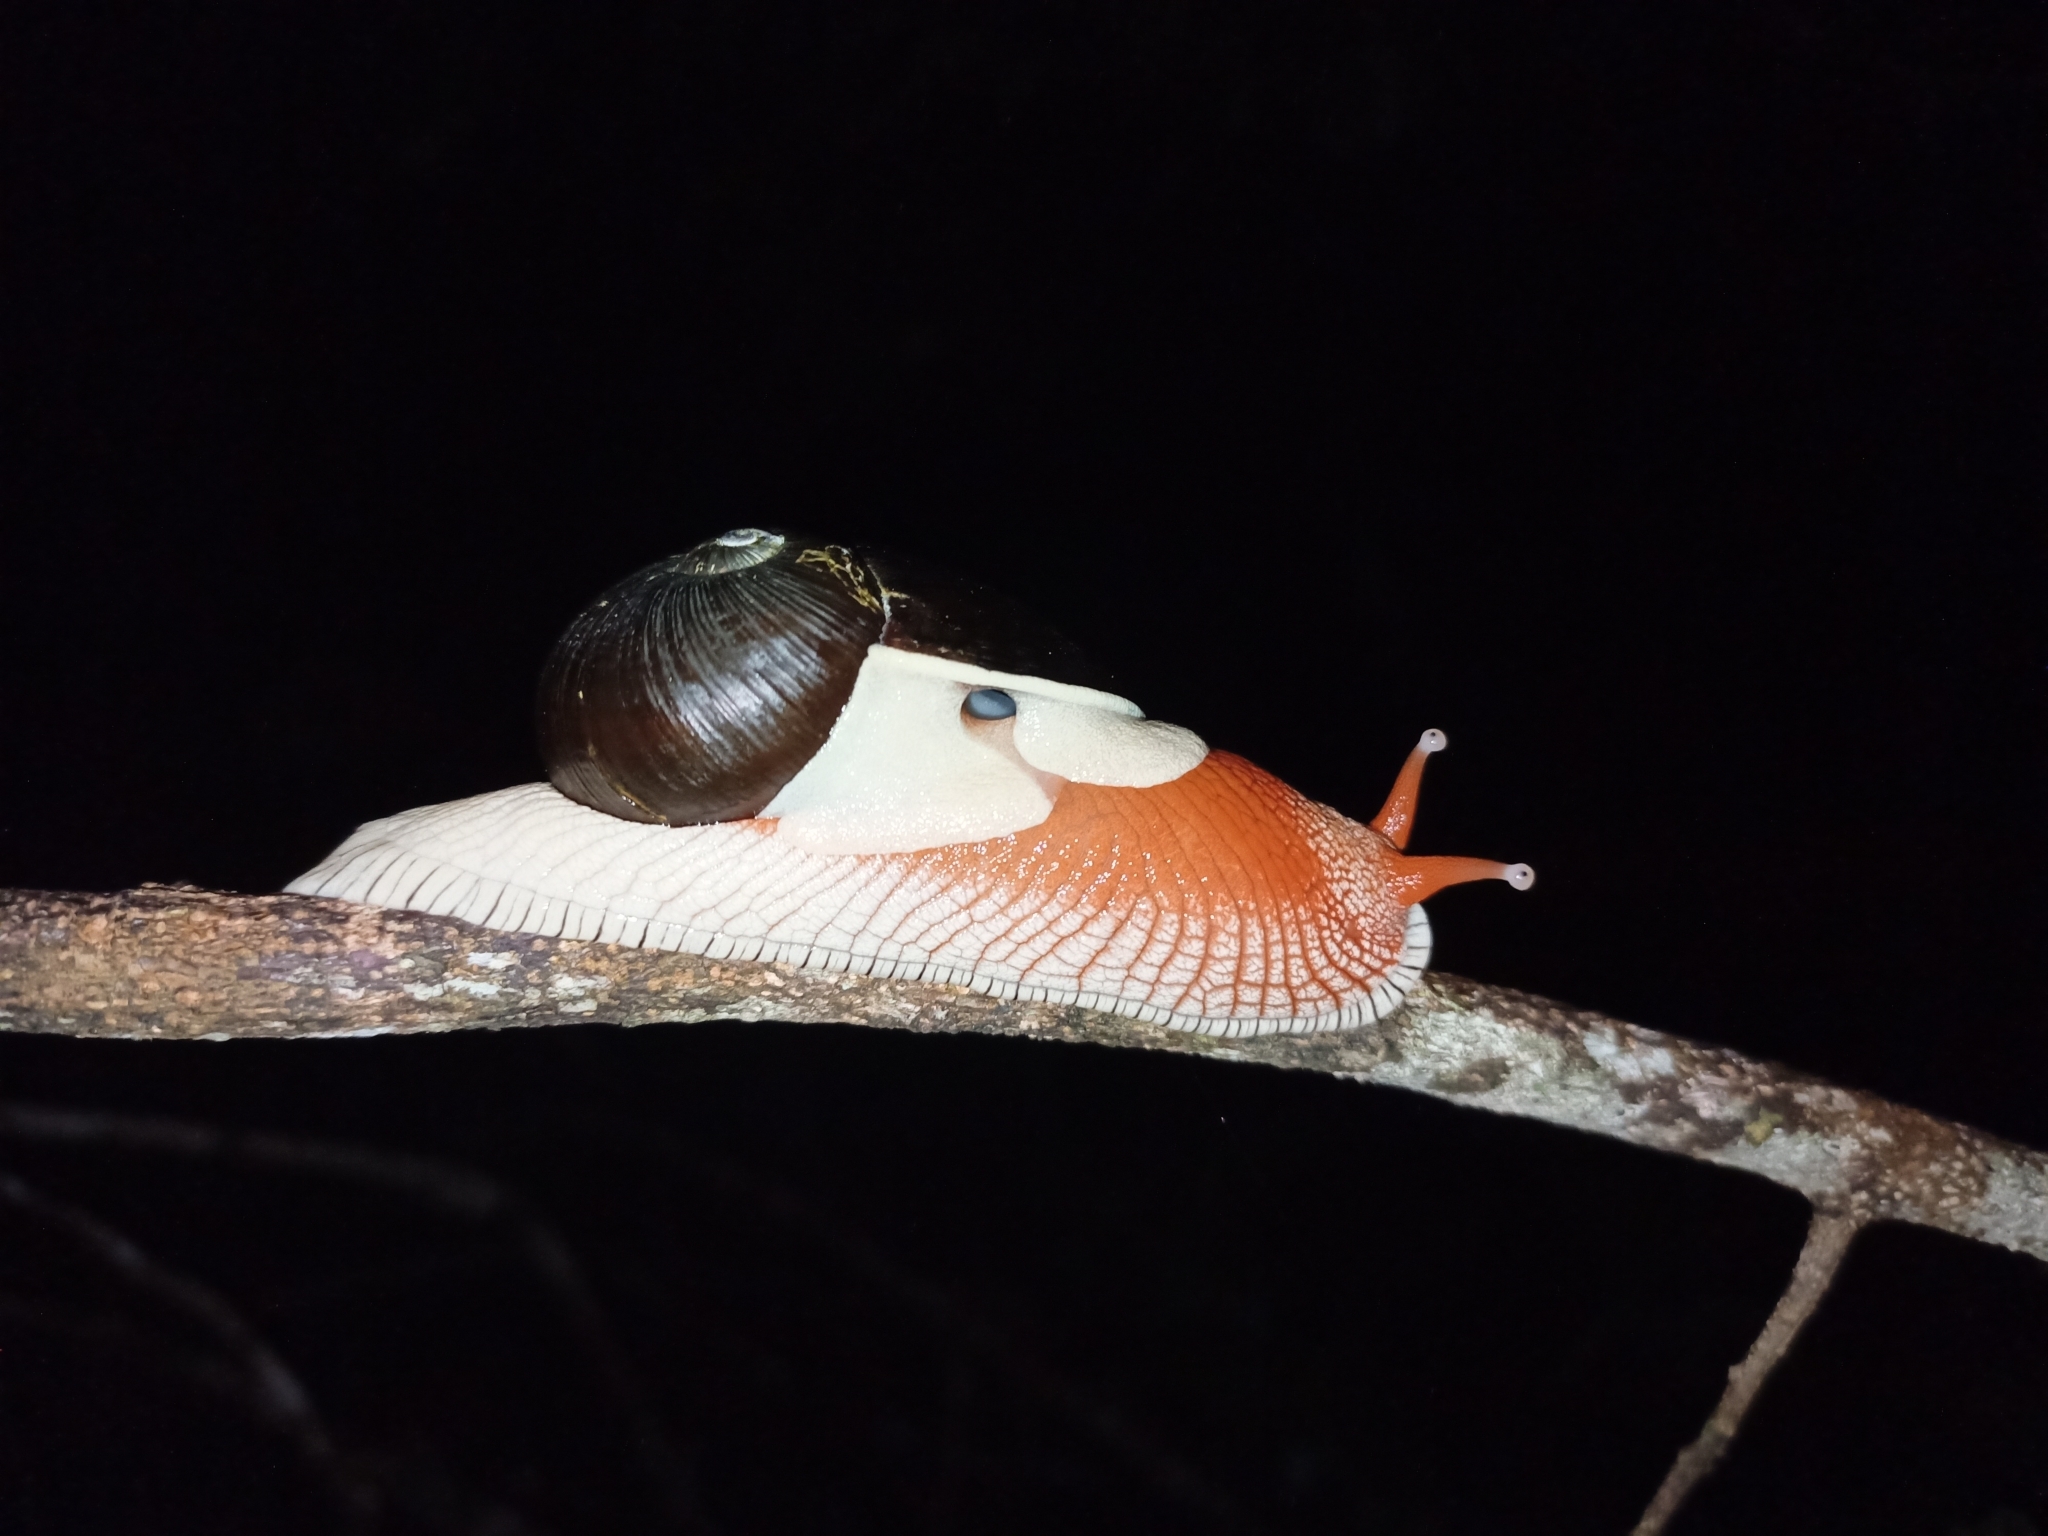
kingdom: Animalia
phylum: Mollusca
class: Gastropoda
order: Stylommatophora
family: Ariophantidae
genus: Indrella
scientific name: Indrella ampulla
